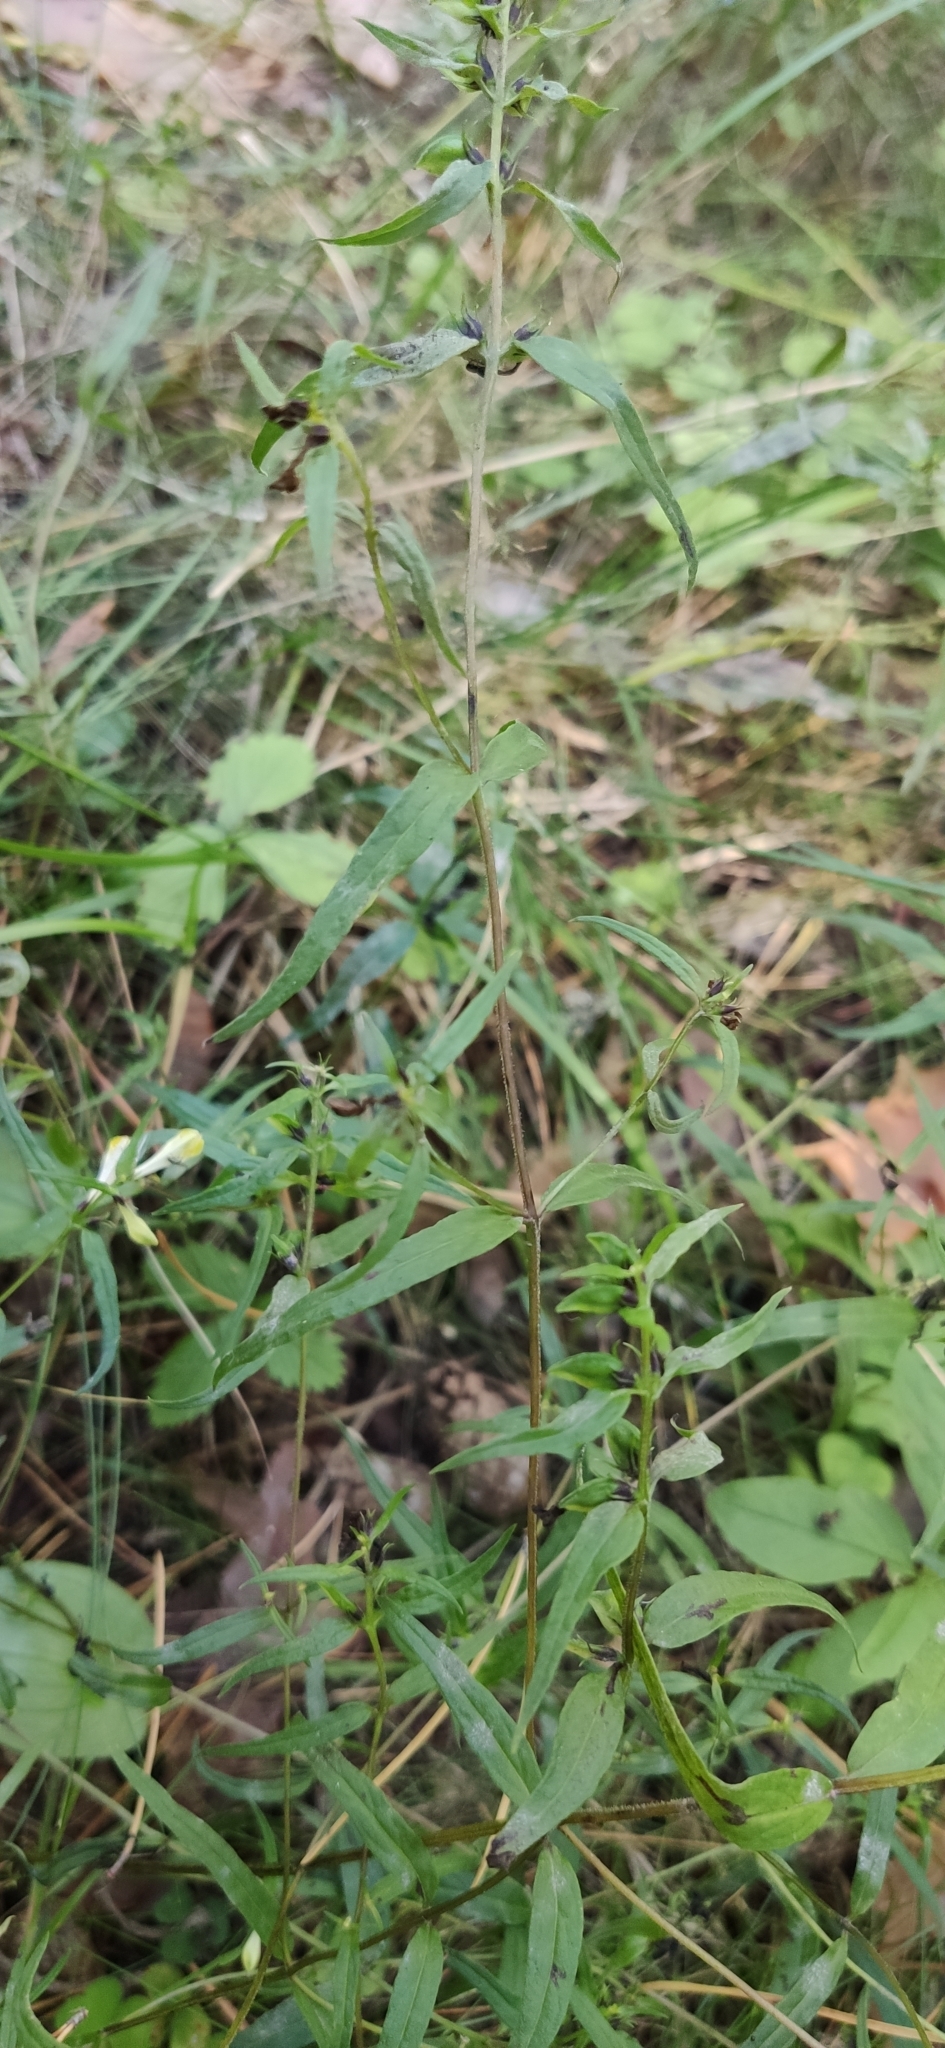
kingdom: Plantae
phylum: Tracheophyta
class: Magnoliopsida
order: Lamiales
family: Orobanchaceae
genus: Melampyrum
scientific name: Melampyrum pratense
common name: Common cow-wheat
